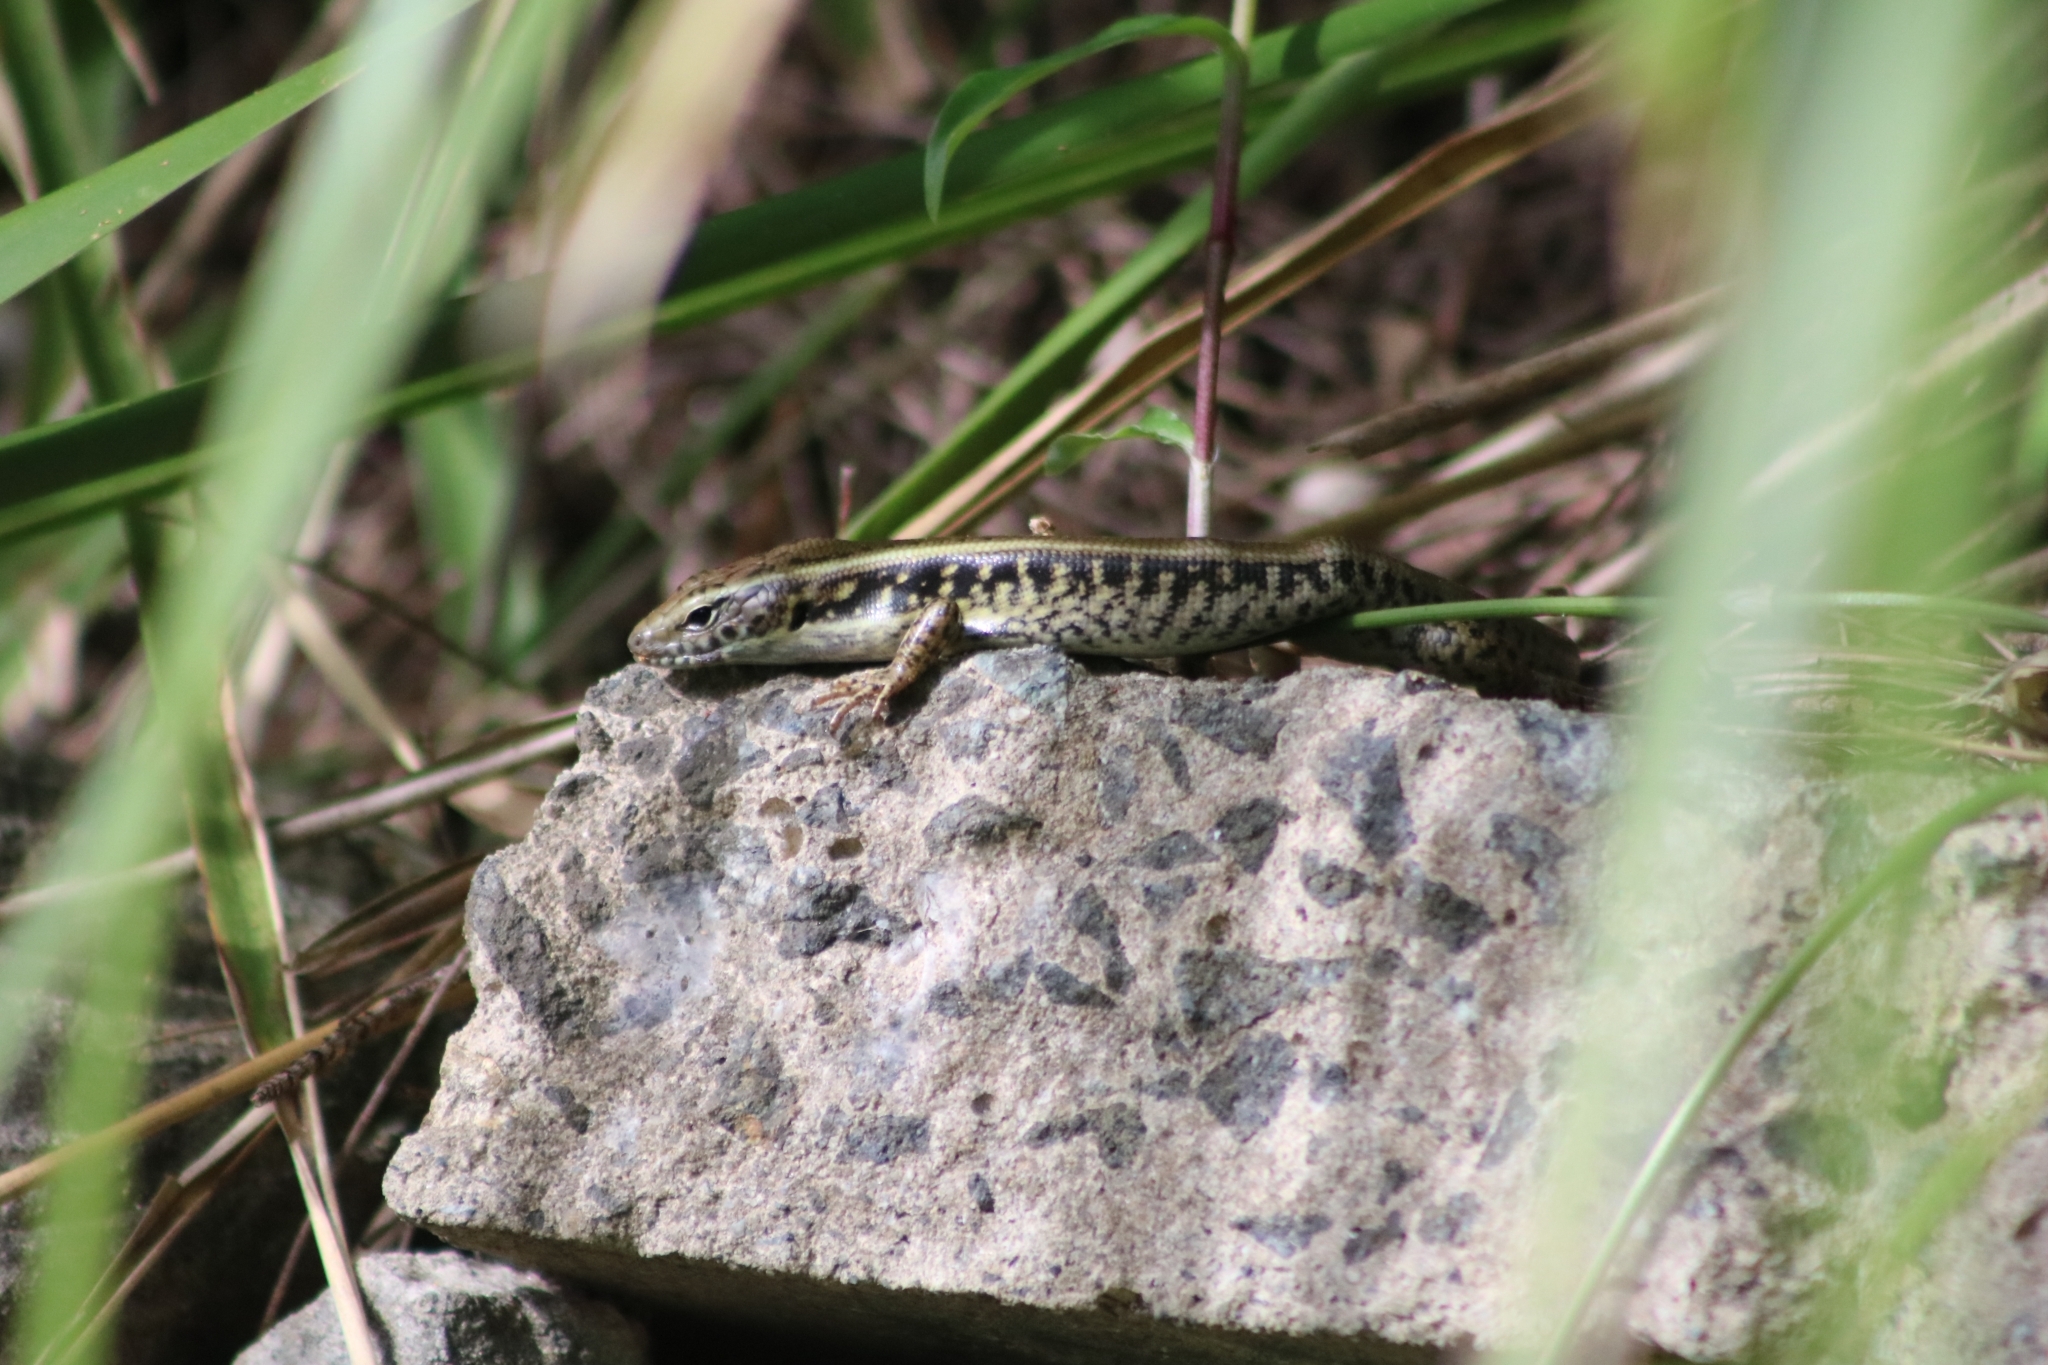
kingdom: Animalia
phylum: Chordata
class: Squamata
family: Scincidae
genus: Eulamprus
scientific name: Eulamprus quoyii
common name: Eastern water skink
